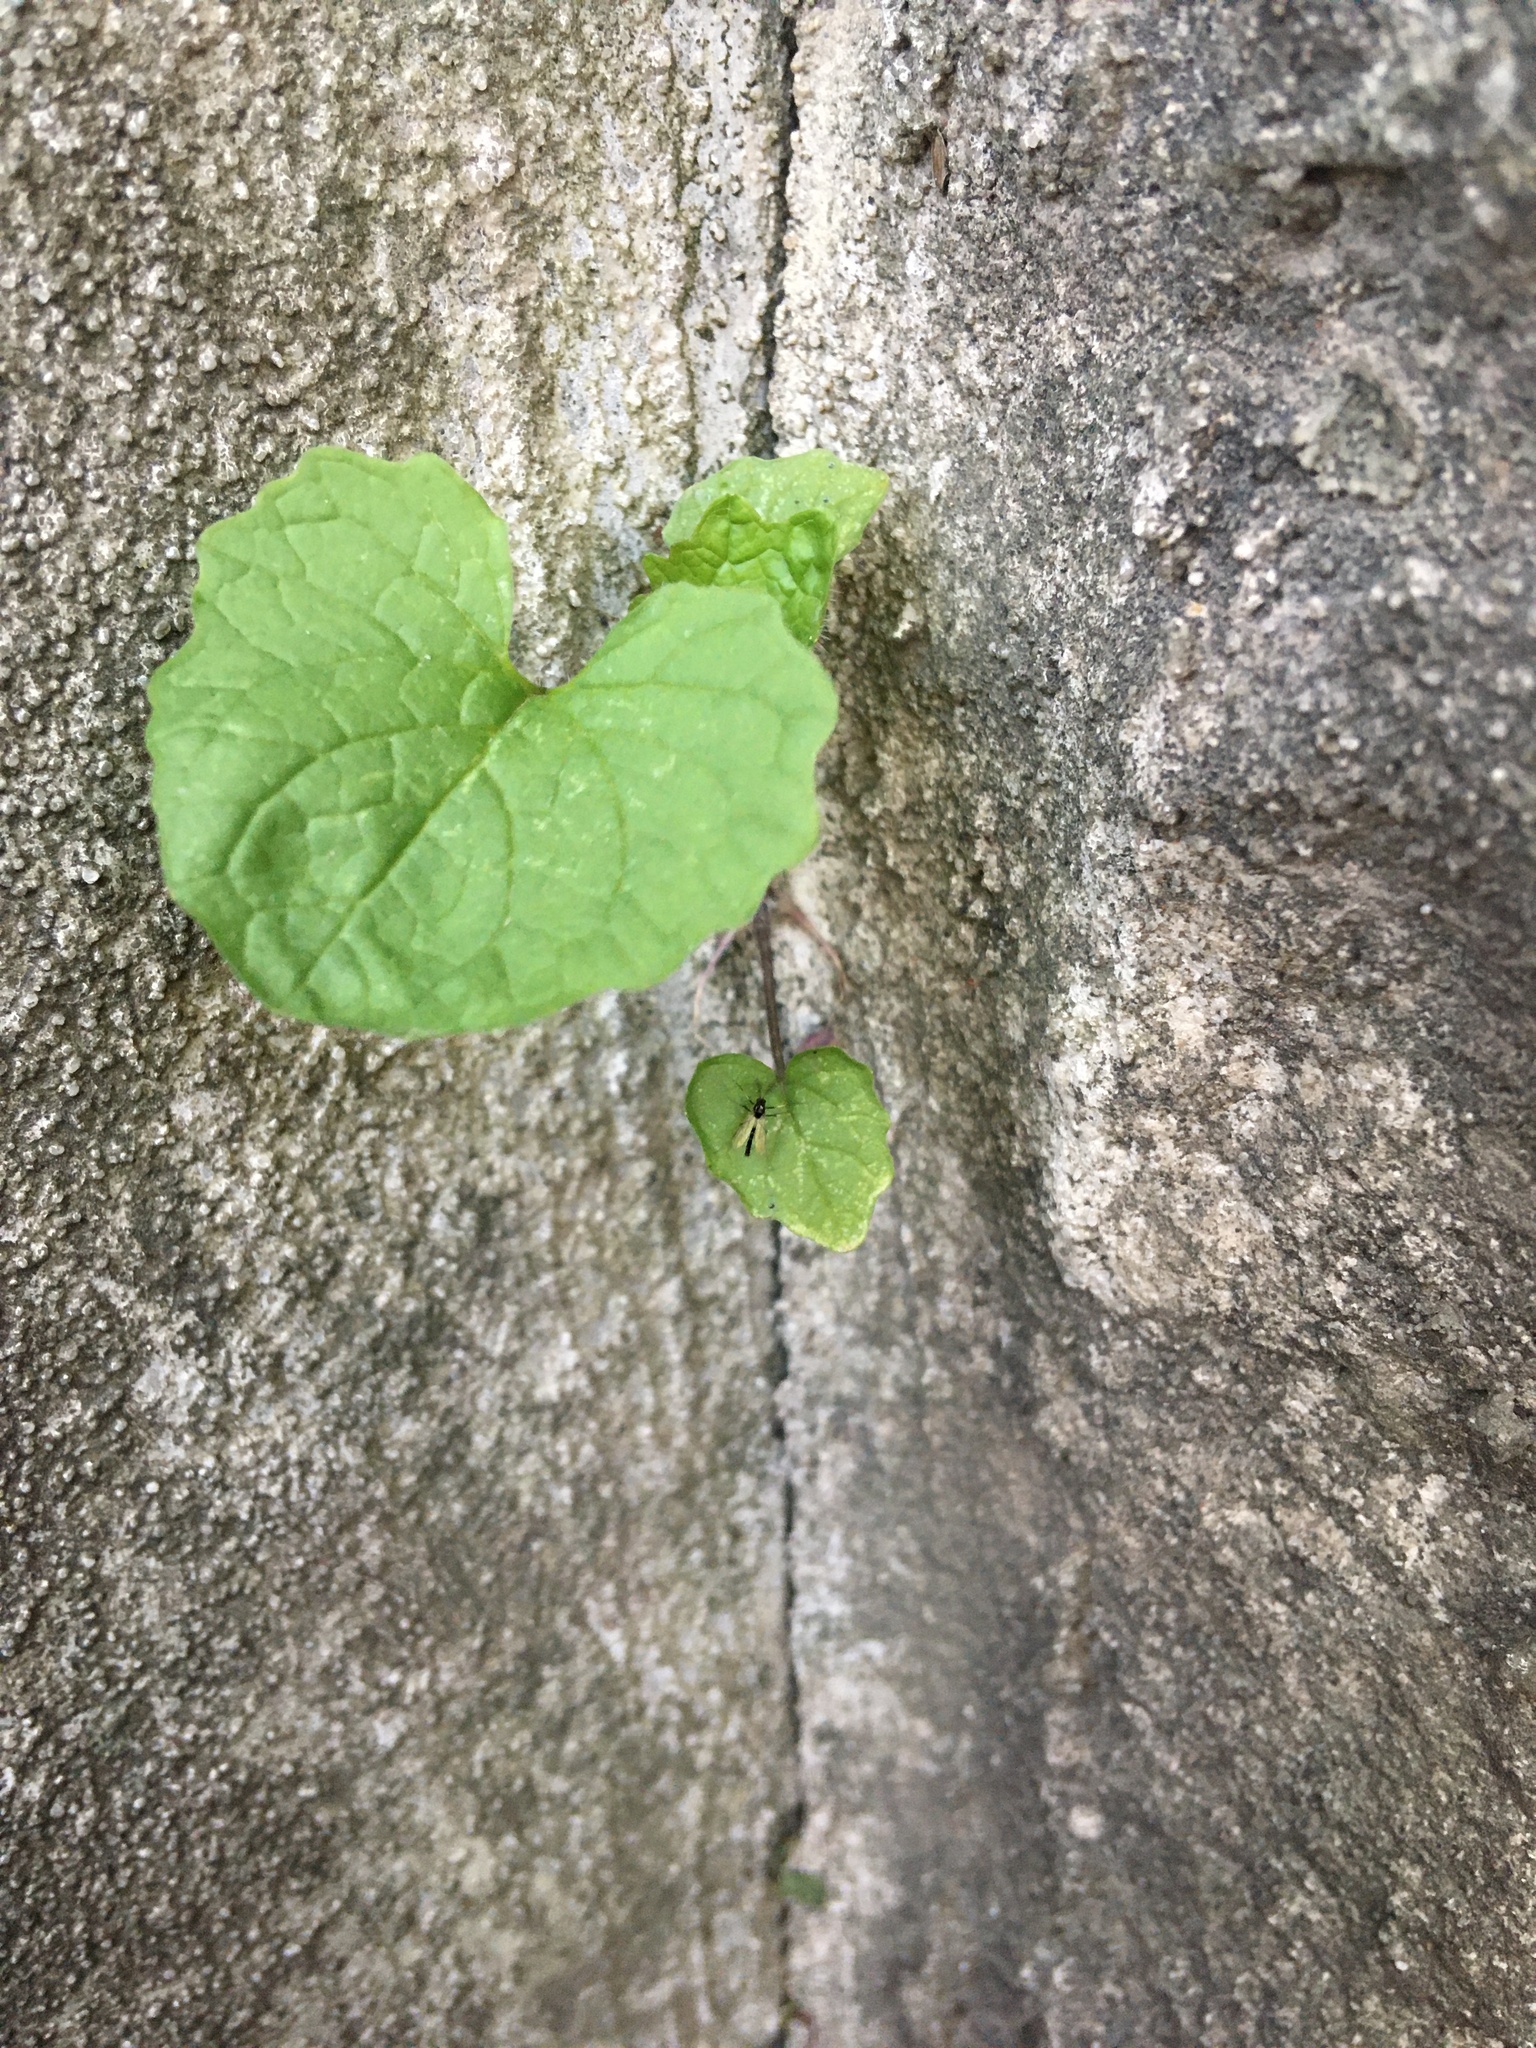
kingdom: Plantae
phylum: Tracheophyta
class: Magnoliopsida
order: Brassicales
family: Brassicaceae
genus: Alliaria
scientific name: Alliaria petiolata
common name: Garlic mustard
